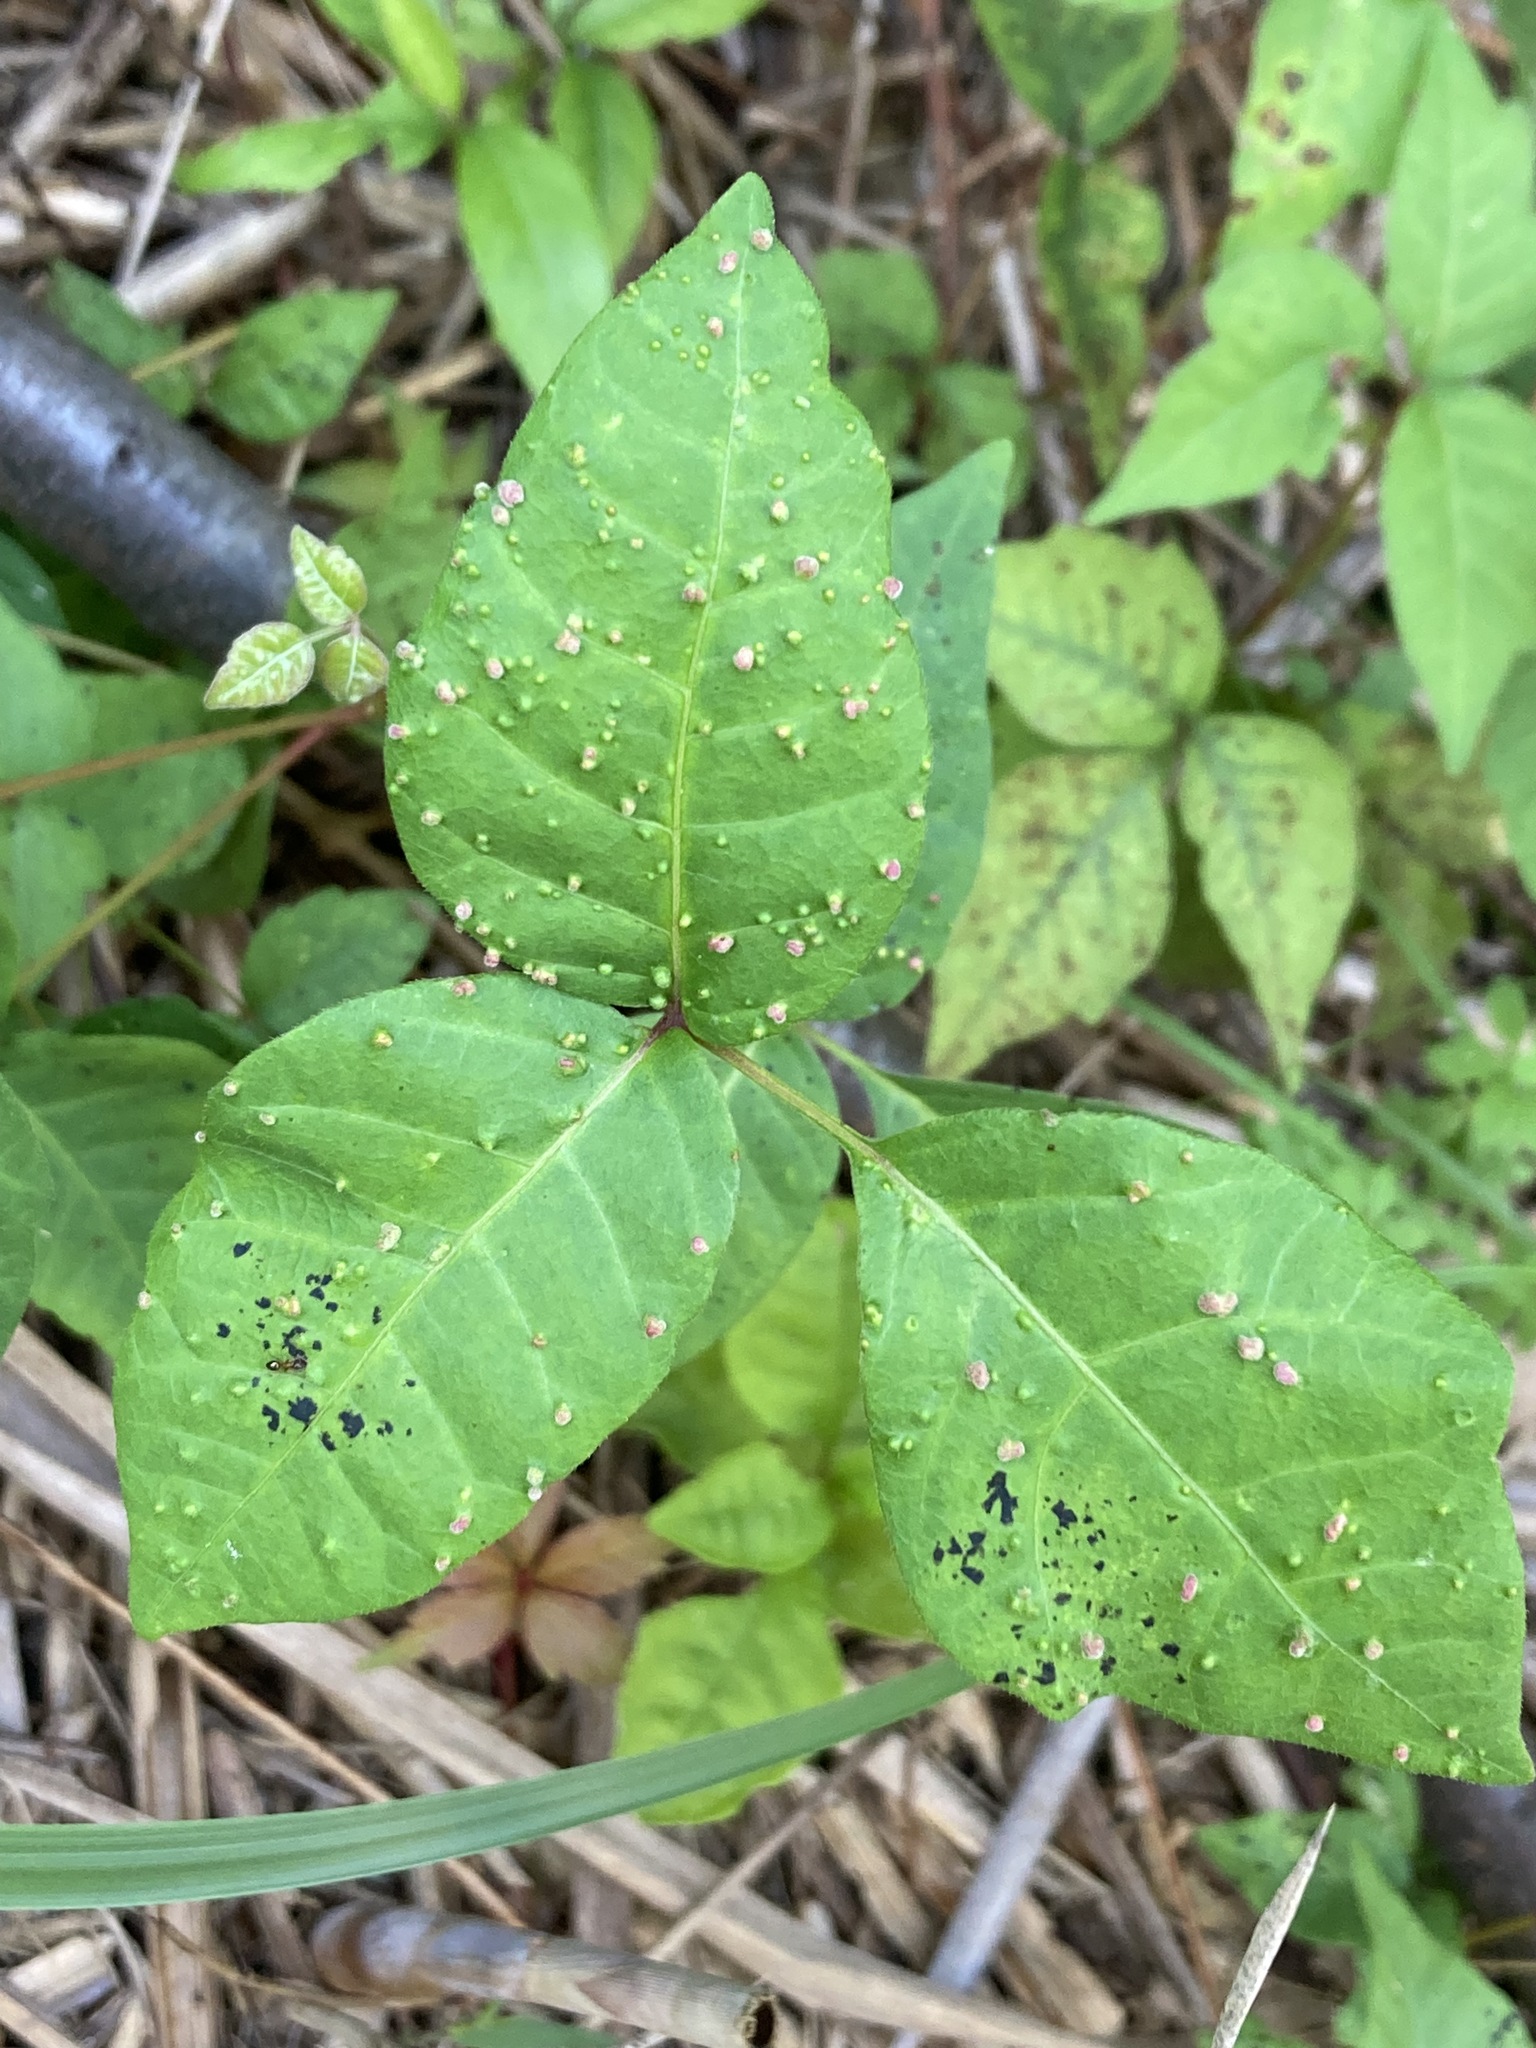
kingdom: Animalia
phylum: Arthropoda
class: Arachnida
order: Trombidiformes
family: Eriophyidae
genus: Aculops
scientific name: Aculops
